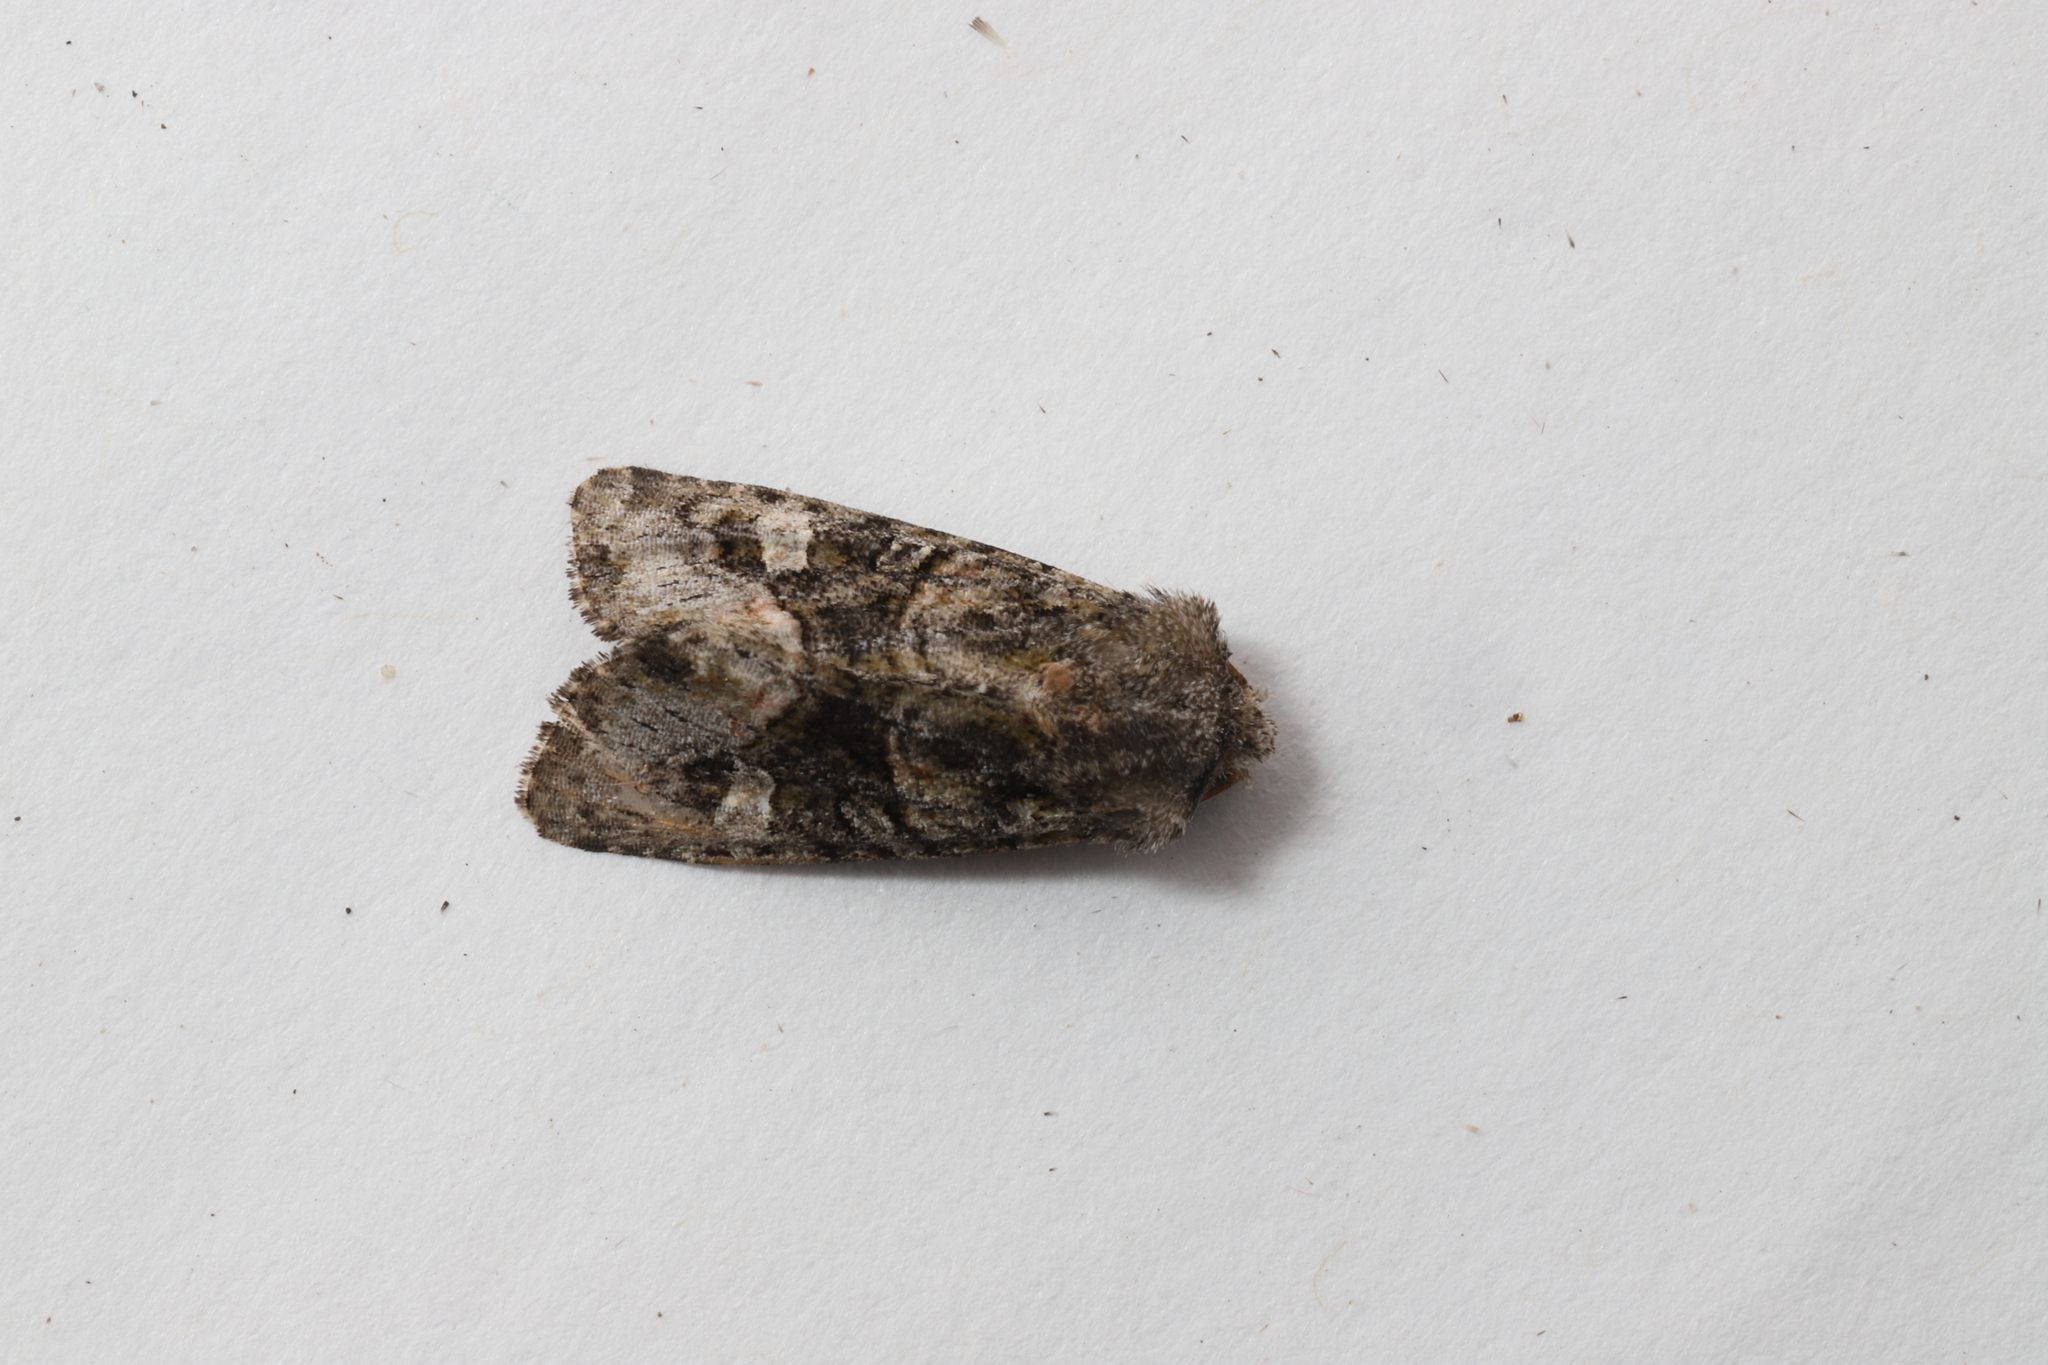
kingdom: Animalia
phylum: Arthropoda
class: Insecta
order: Lepidoptera
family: Noctuidae
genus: Lacinipolia
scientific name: Lacinipolia olivacea
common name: Olive arches moth
